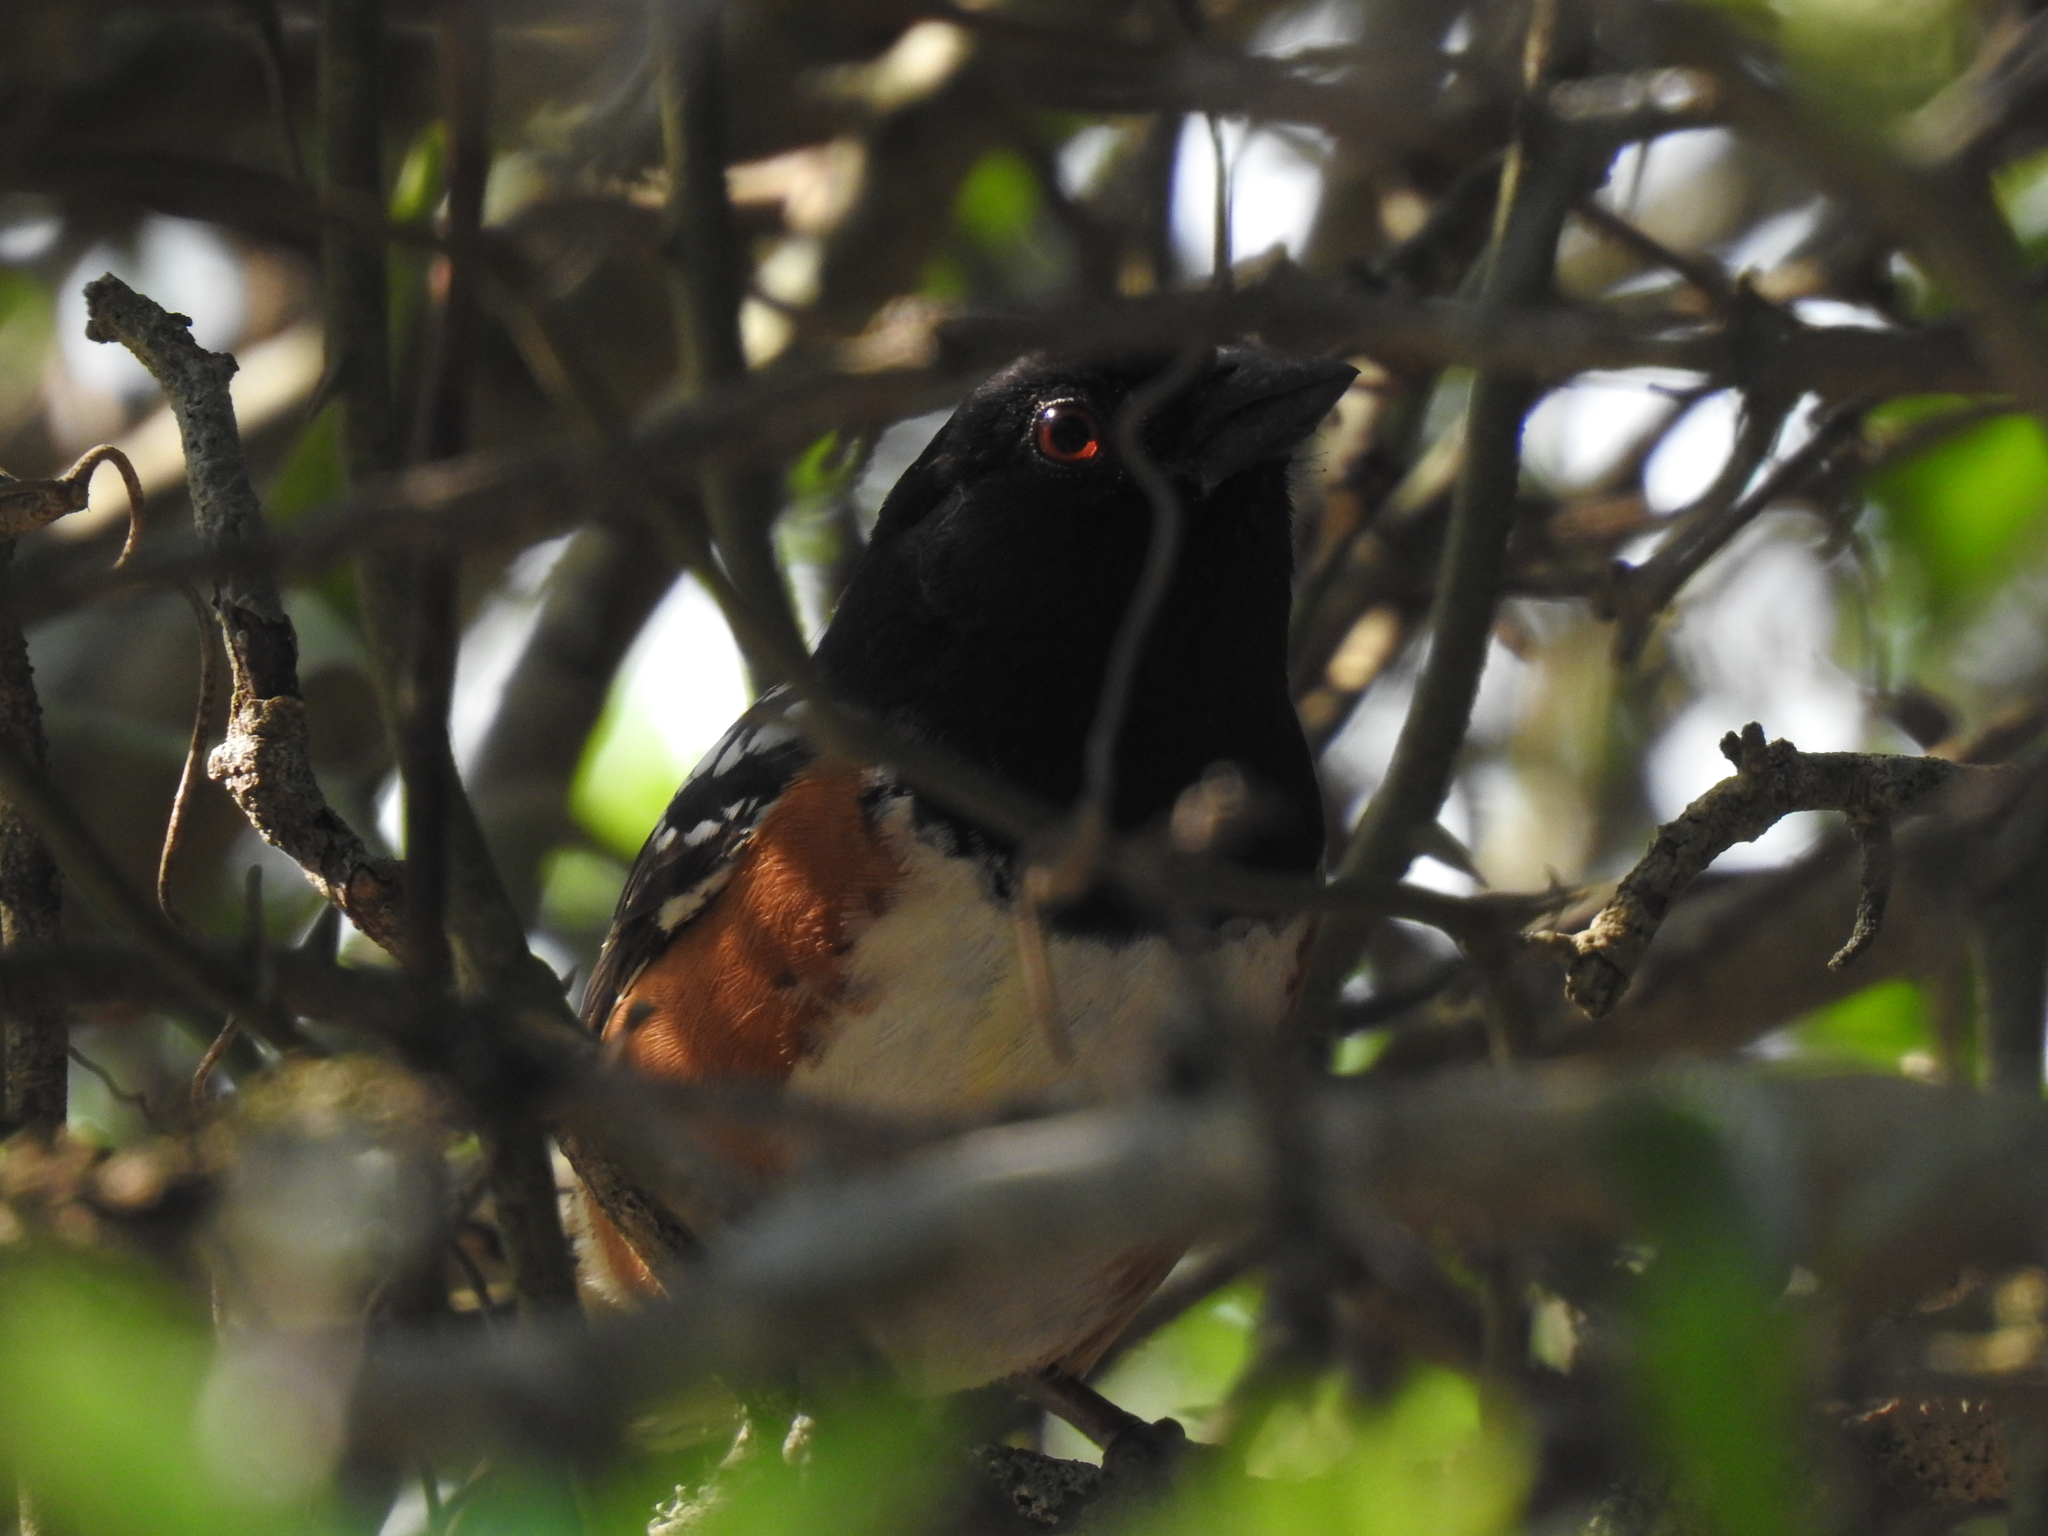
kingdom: Animalia
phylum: Chordata
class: Aves
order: Passeriformes
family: Passerellidae
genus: Pipilo
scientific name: Pipilo maculatus
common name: Spotted towhee
